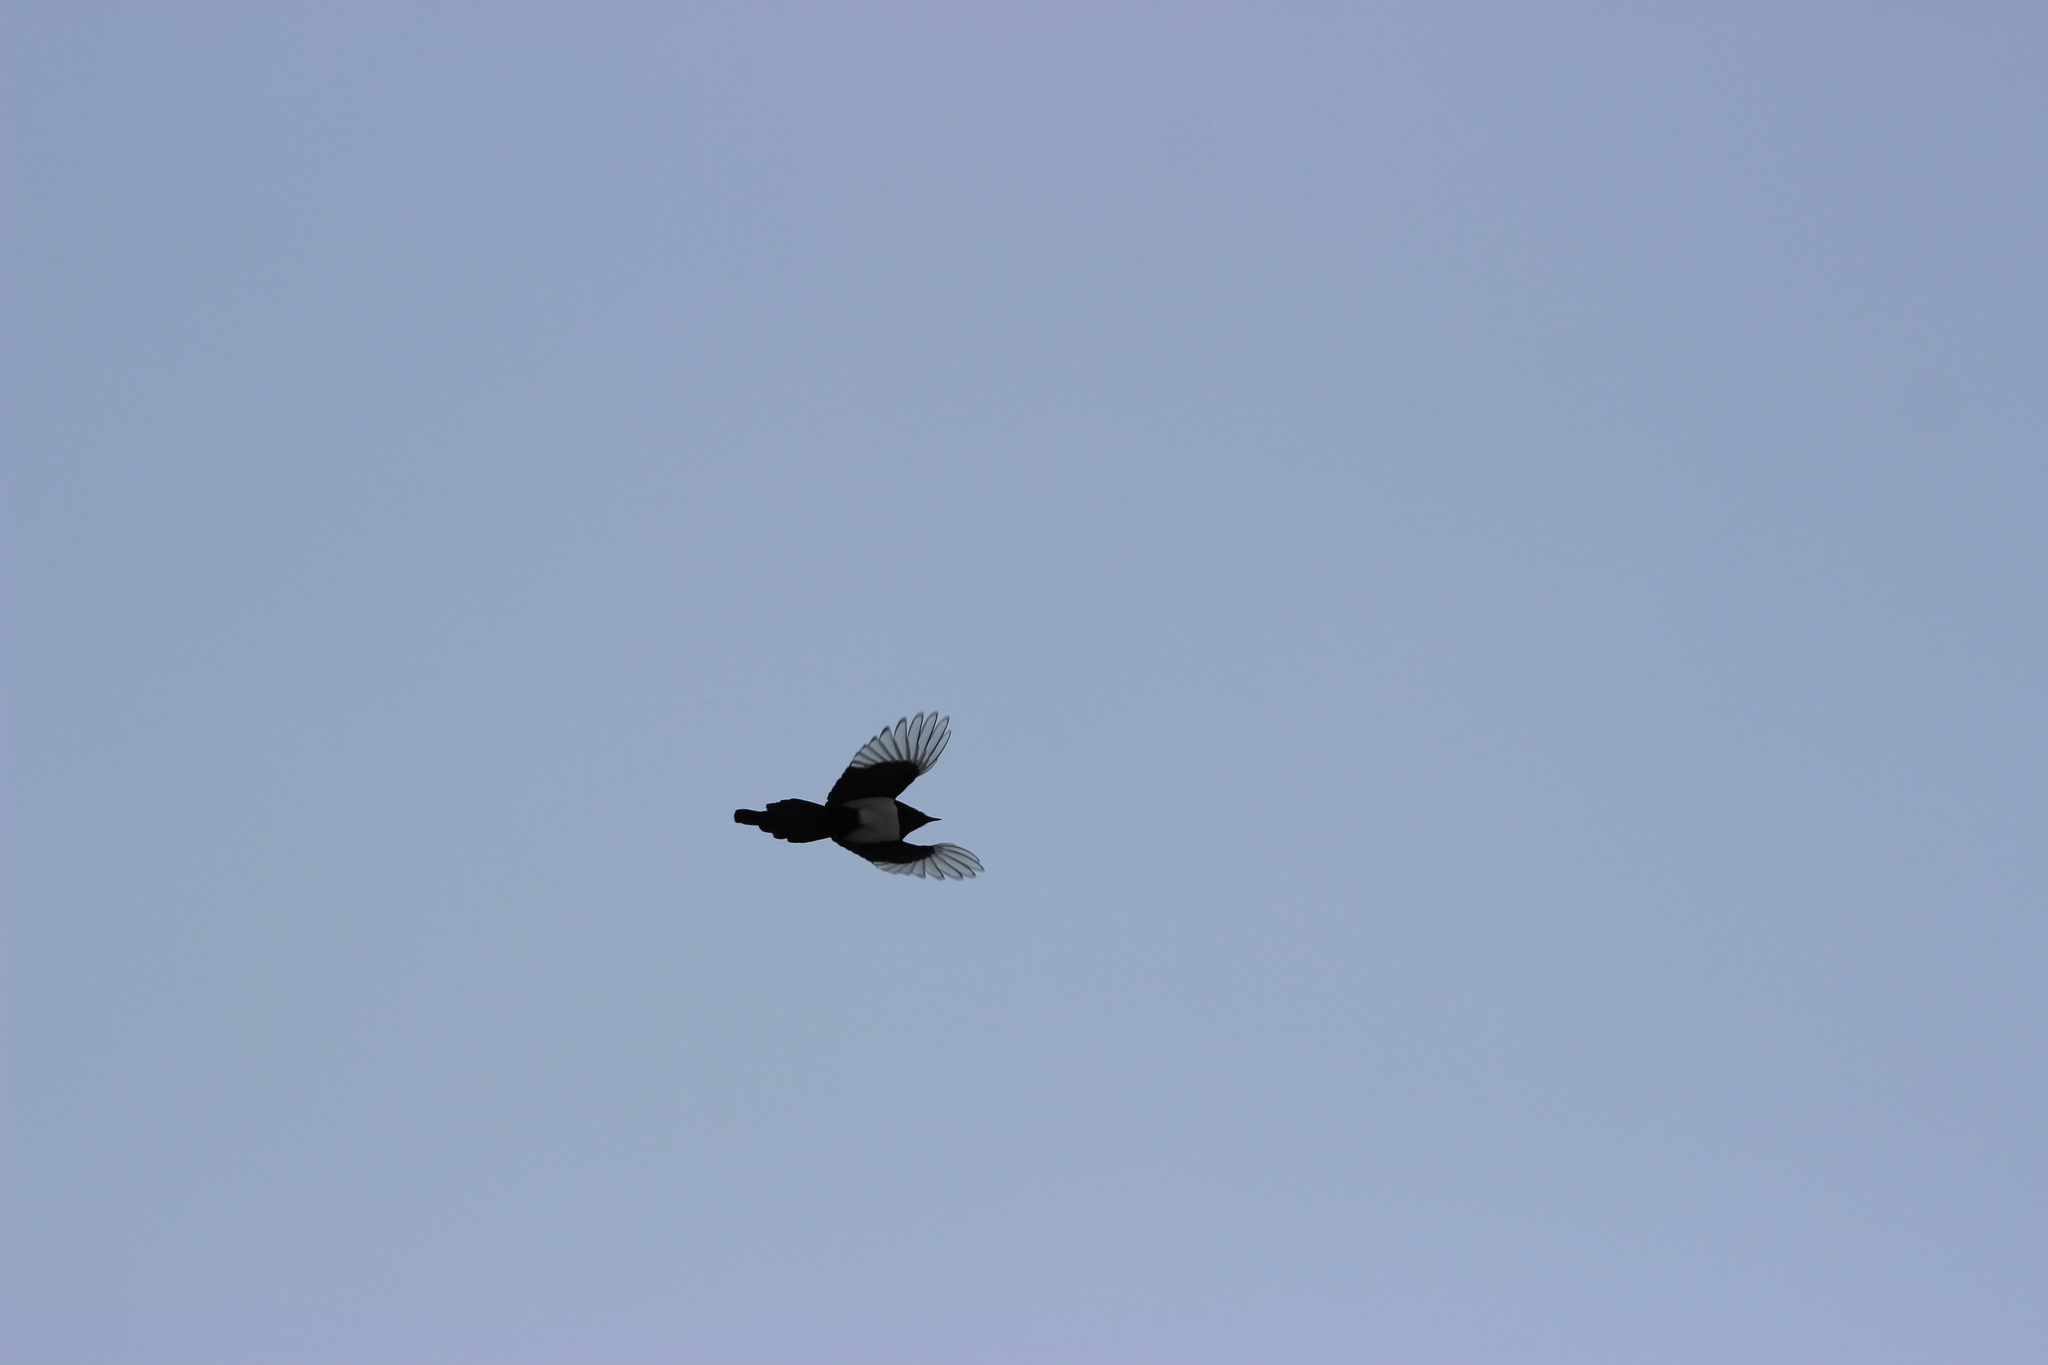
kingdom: Animalia
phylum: Chordata
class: Aves
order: Passeriformes
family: Corvidae
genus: Pica
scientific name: Pica pica
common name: Eurasian magpie
